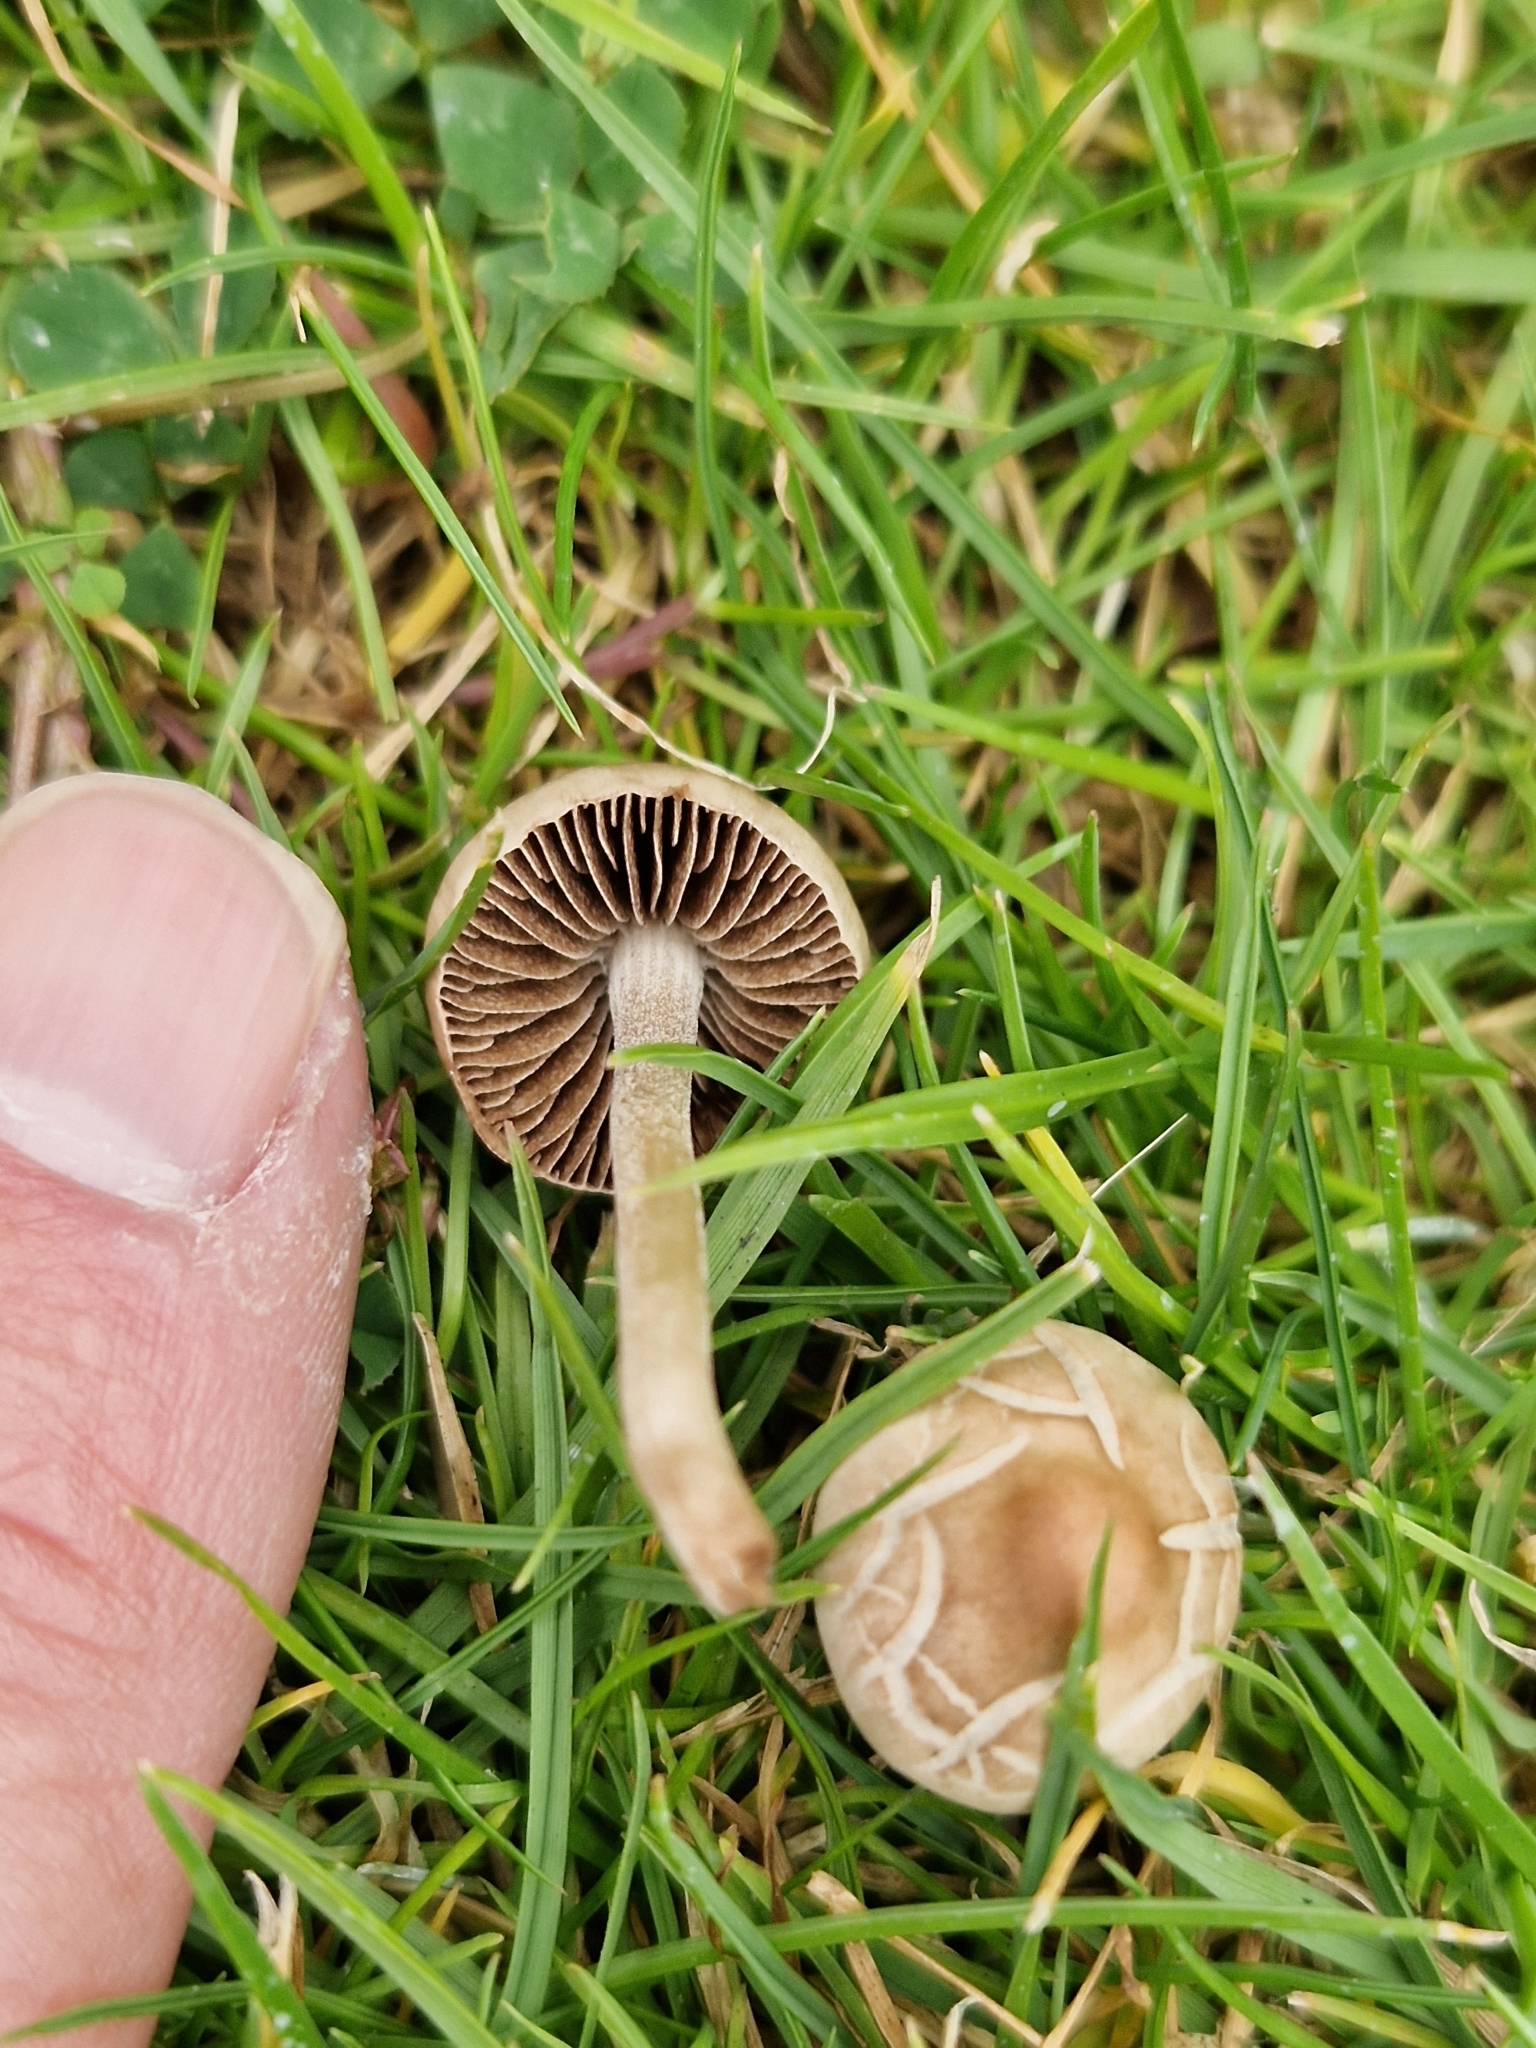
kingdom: Fungi
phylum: Basidiomycota
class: Agaricomycetes
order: Agaricales
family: Bolbitiaceae
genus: Panaeolina
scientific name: Panaeolina foenisecii
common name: Brown hay cap
